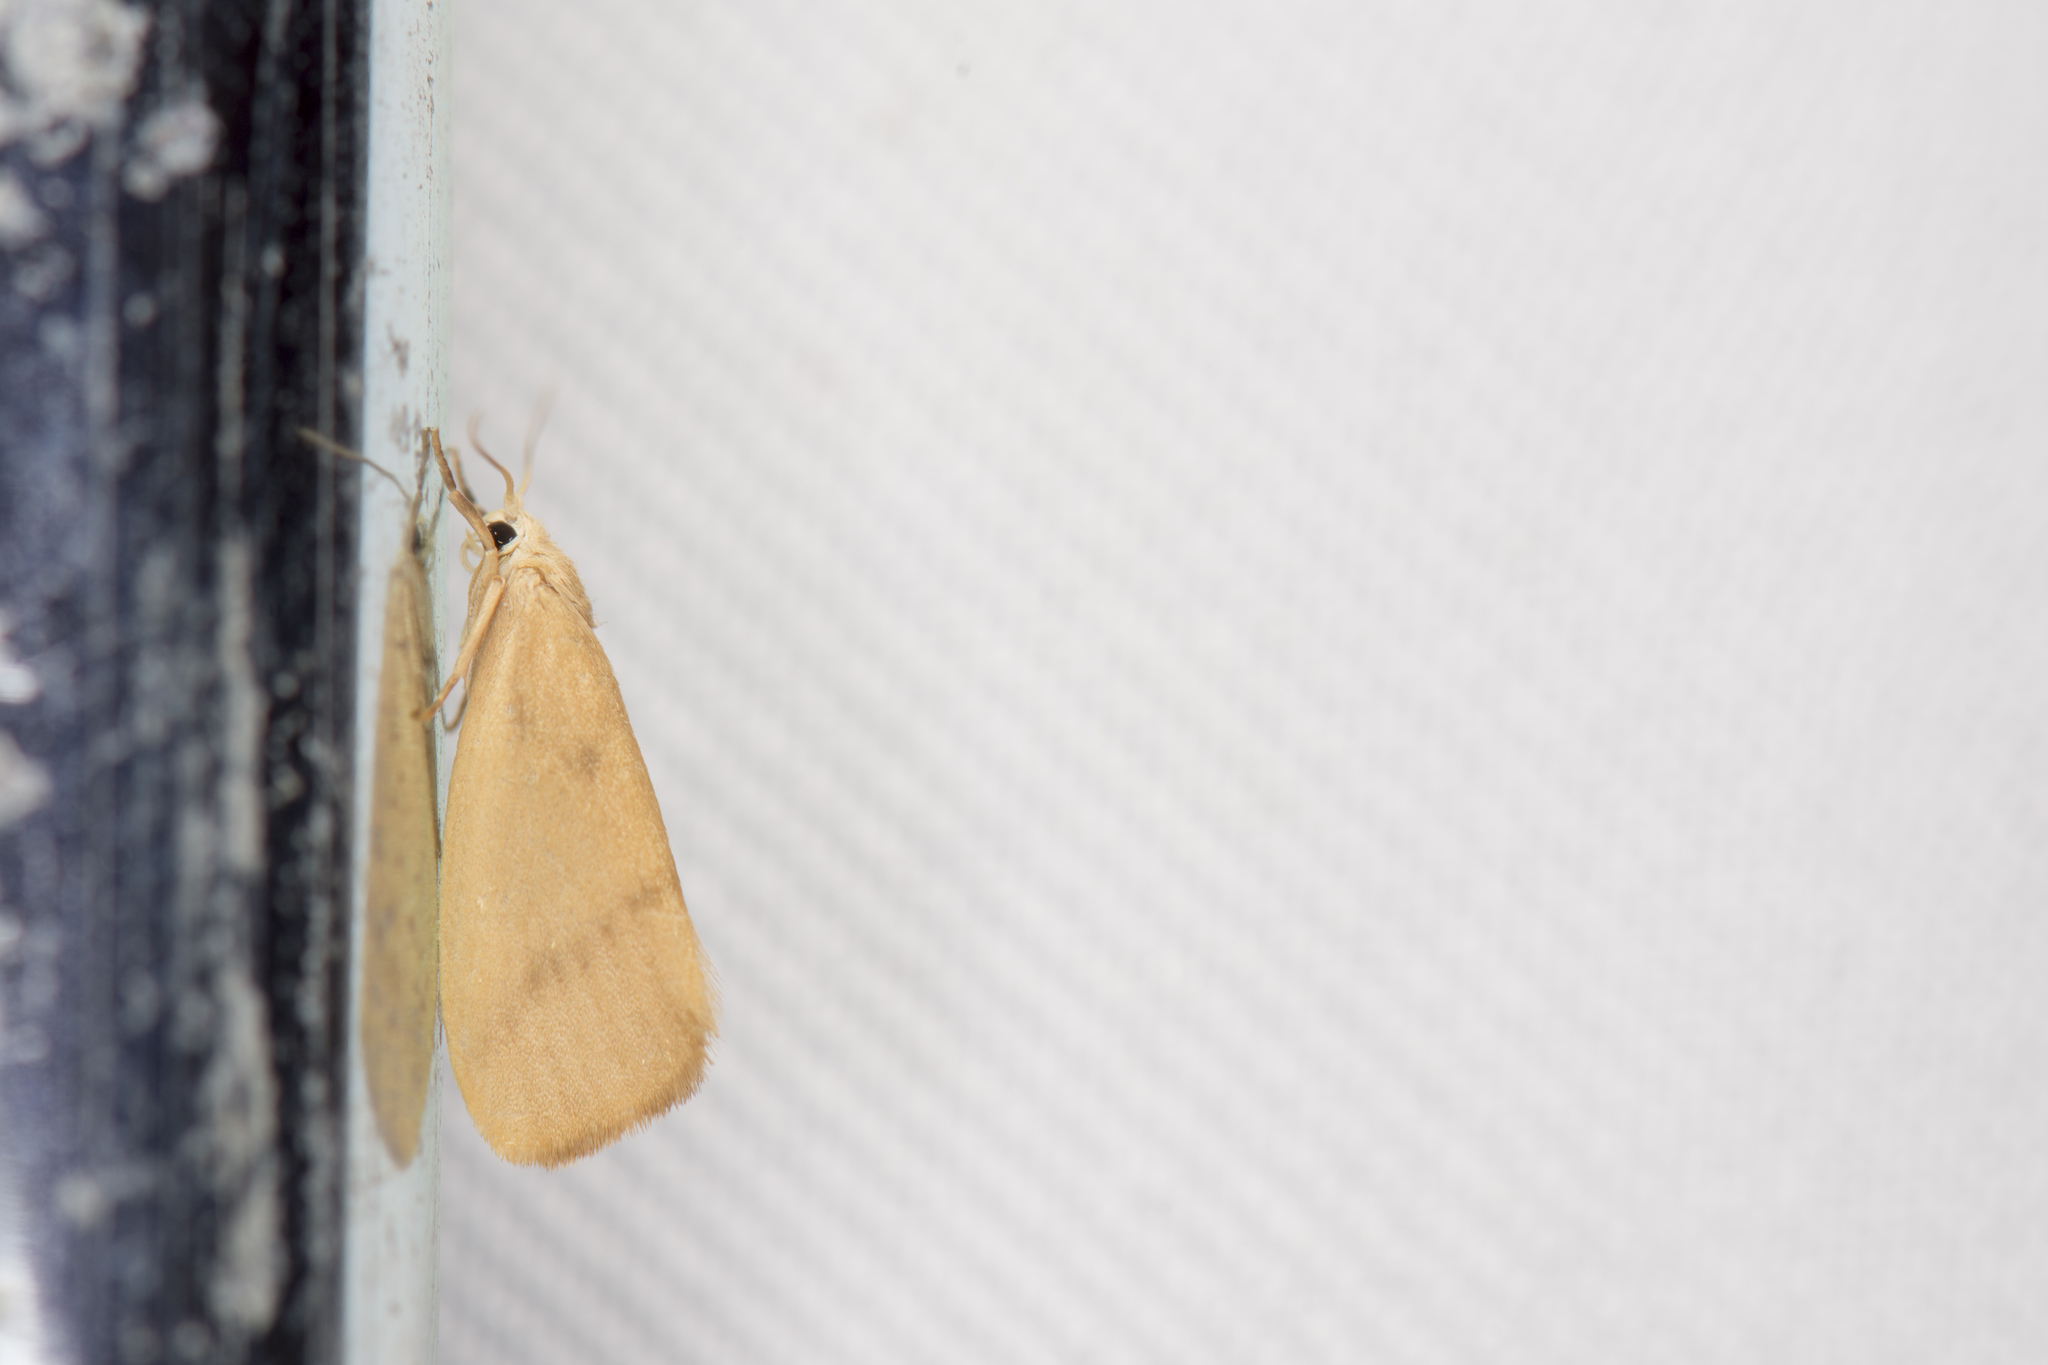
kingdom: Animalia
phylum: Arthropoda
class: Insecta
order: Lepidoptera
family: Erebidae
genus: Notata
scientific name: Notata parva
